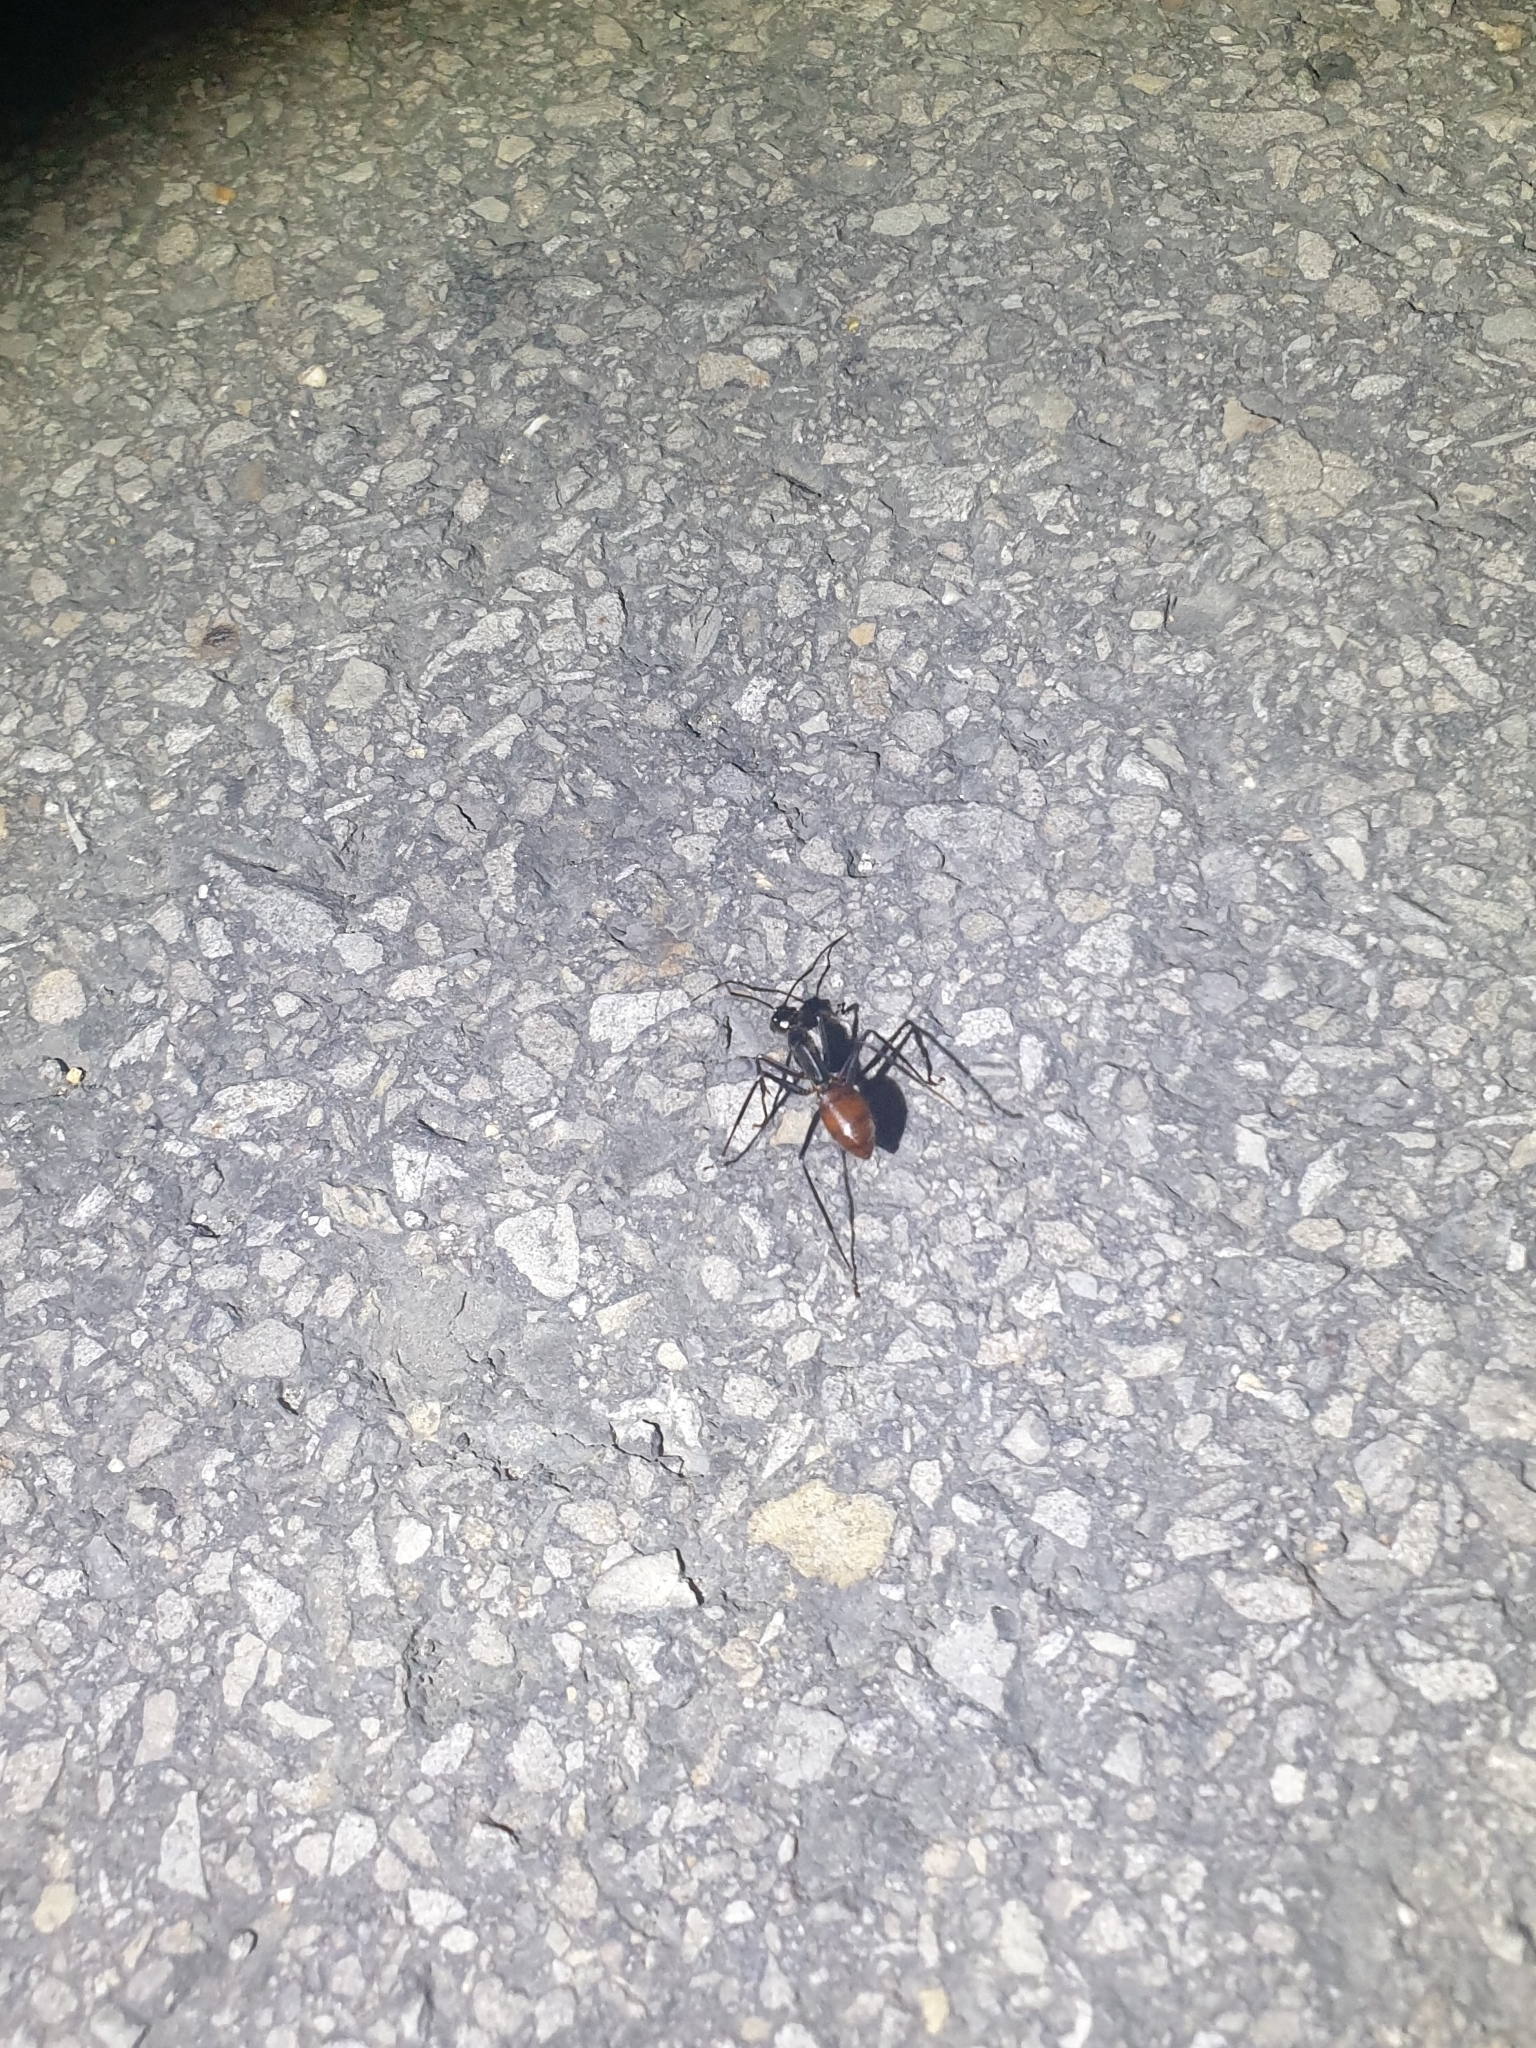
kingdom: Animalia
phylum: Arthropoda
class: Insecta
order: Hymenoptera
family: Formicidae
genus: Dinomyrmex
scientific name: Dinomyrmex
